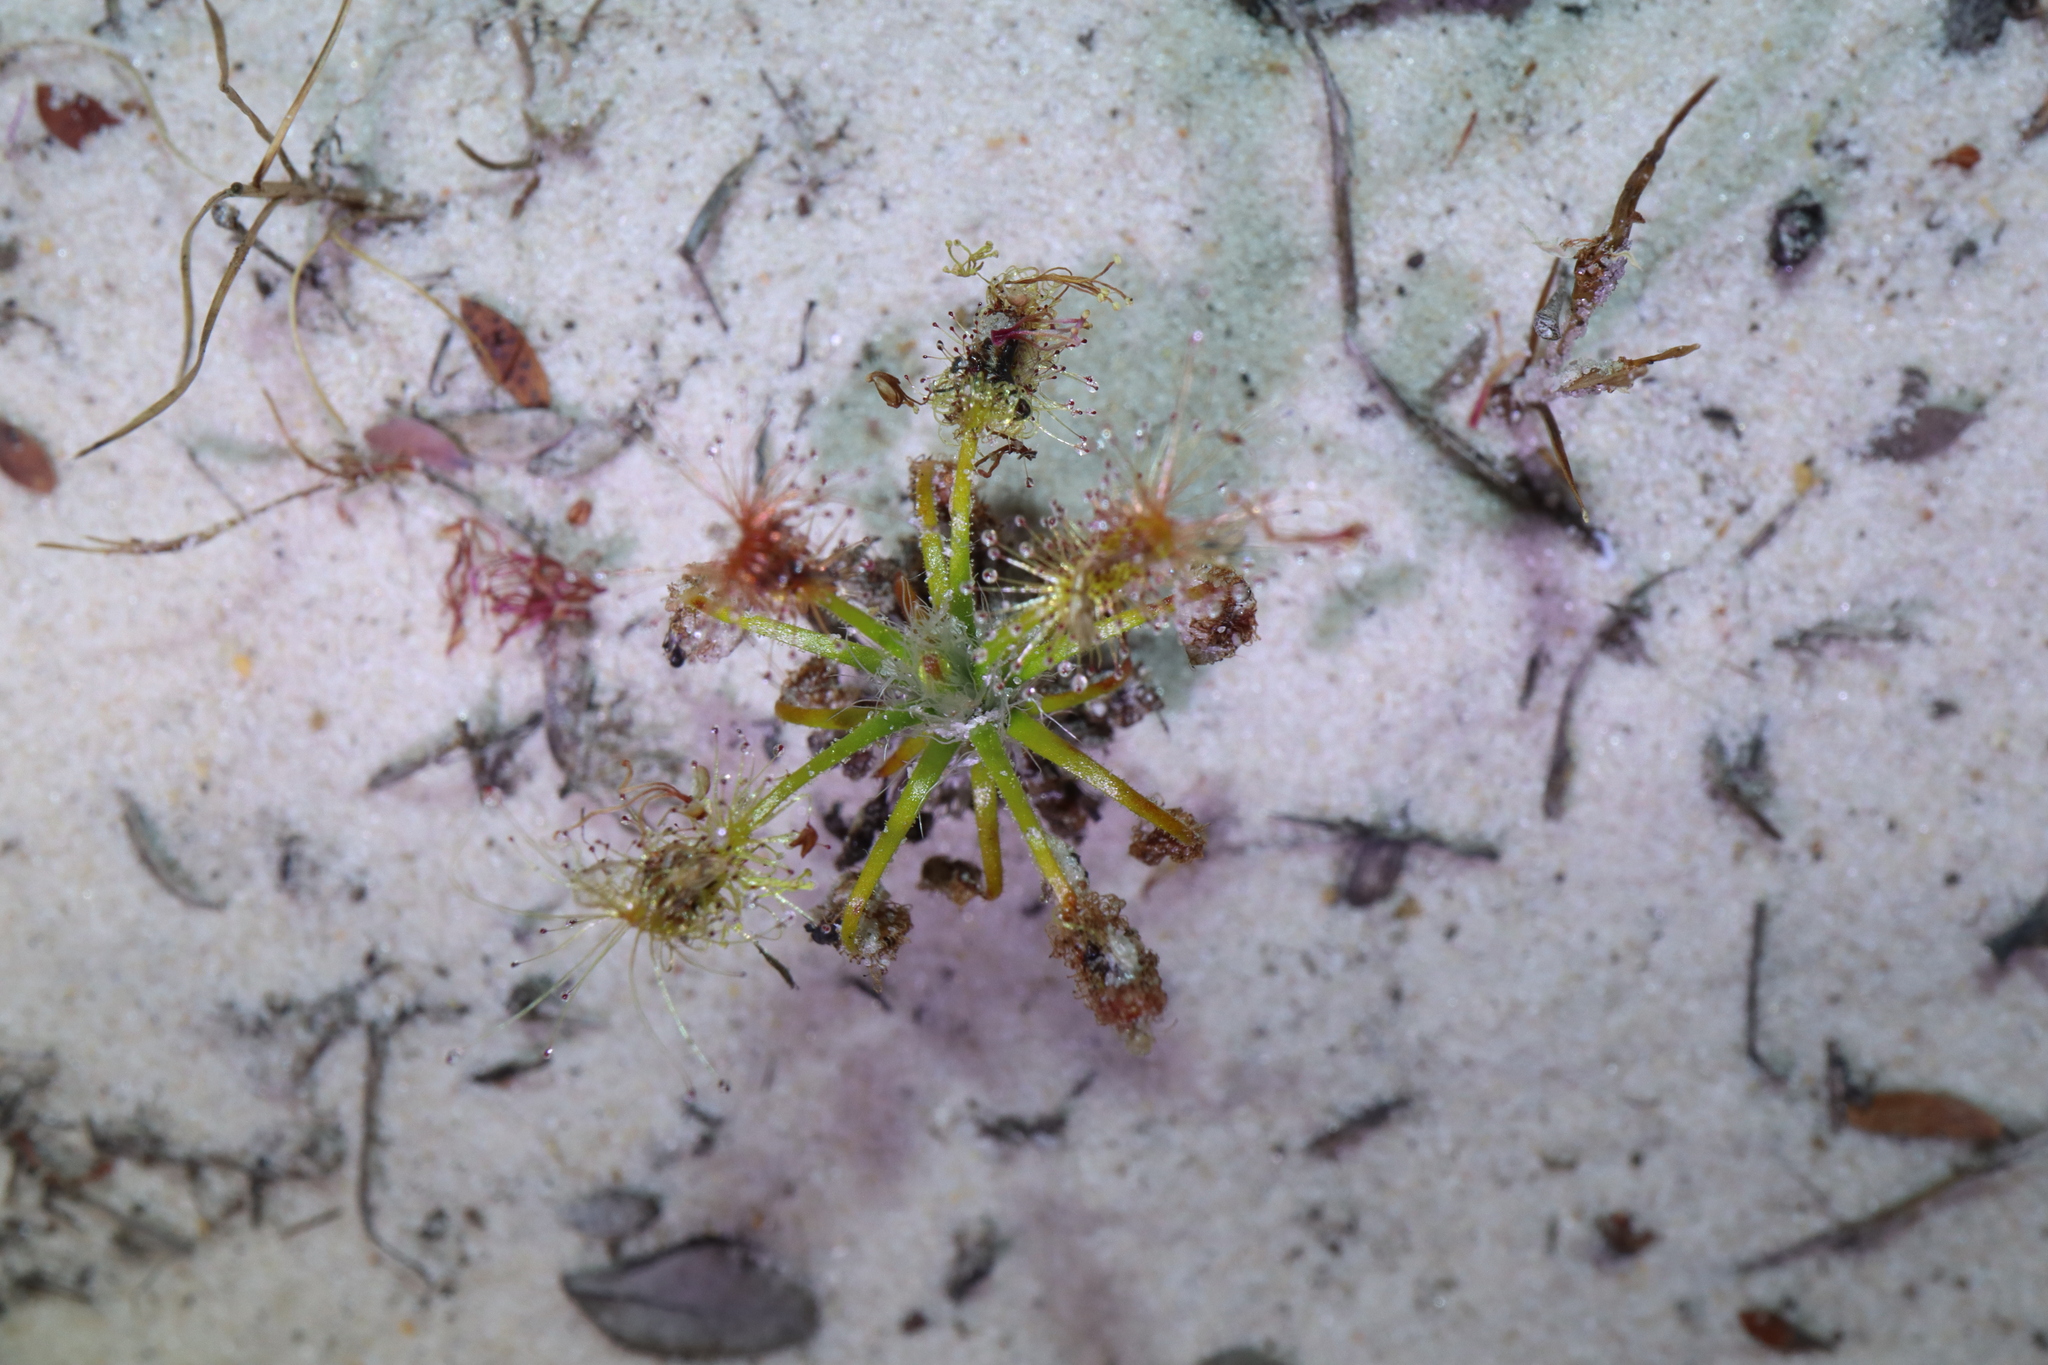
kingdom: Plantae
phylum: Tracheophyta
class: Magnoliopsida
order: Caryophyllales
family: Droseraceae
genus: Drosera
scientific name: Drosera scorpioides
